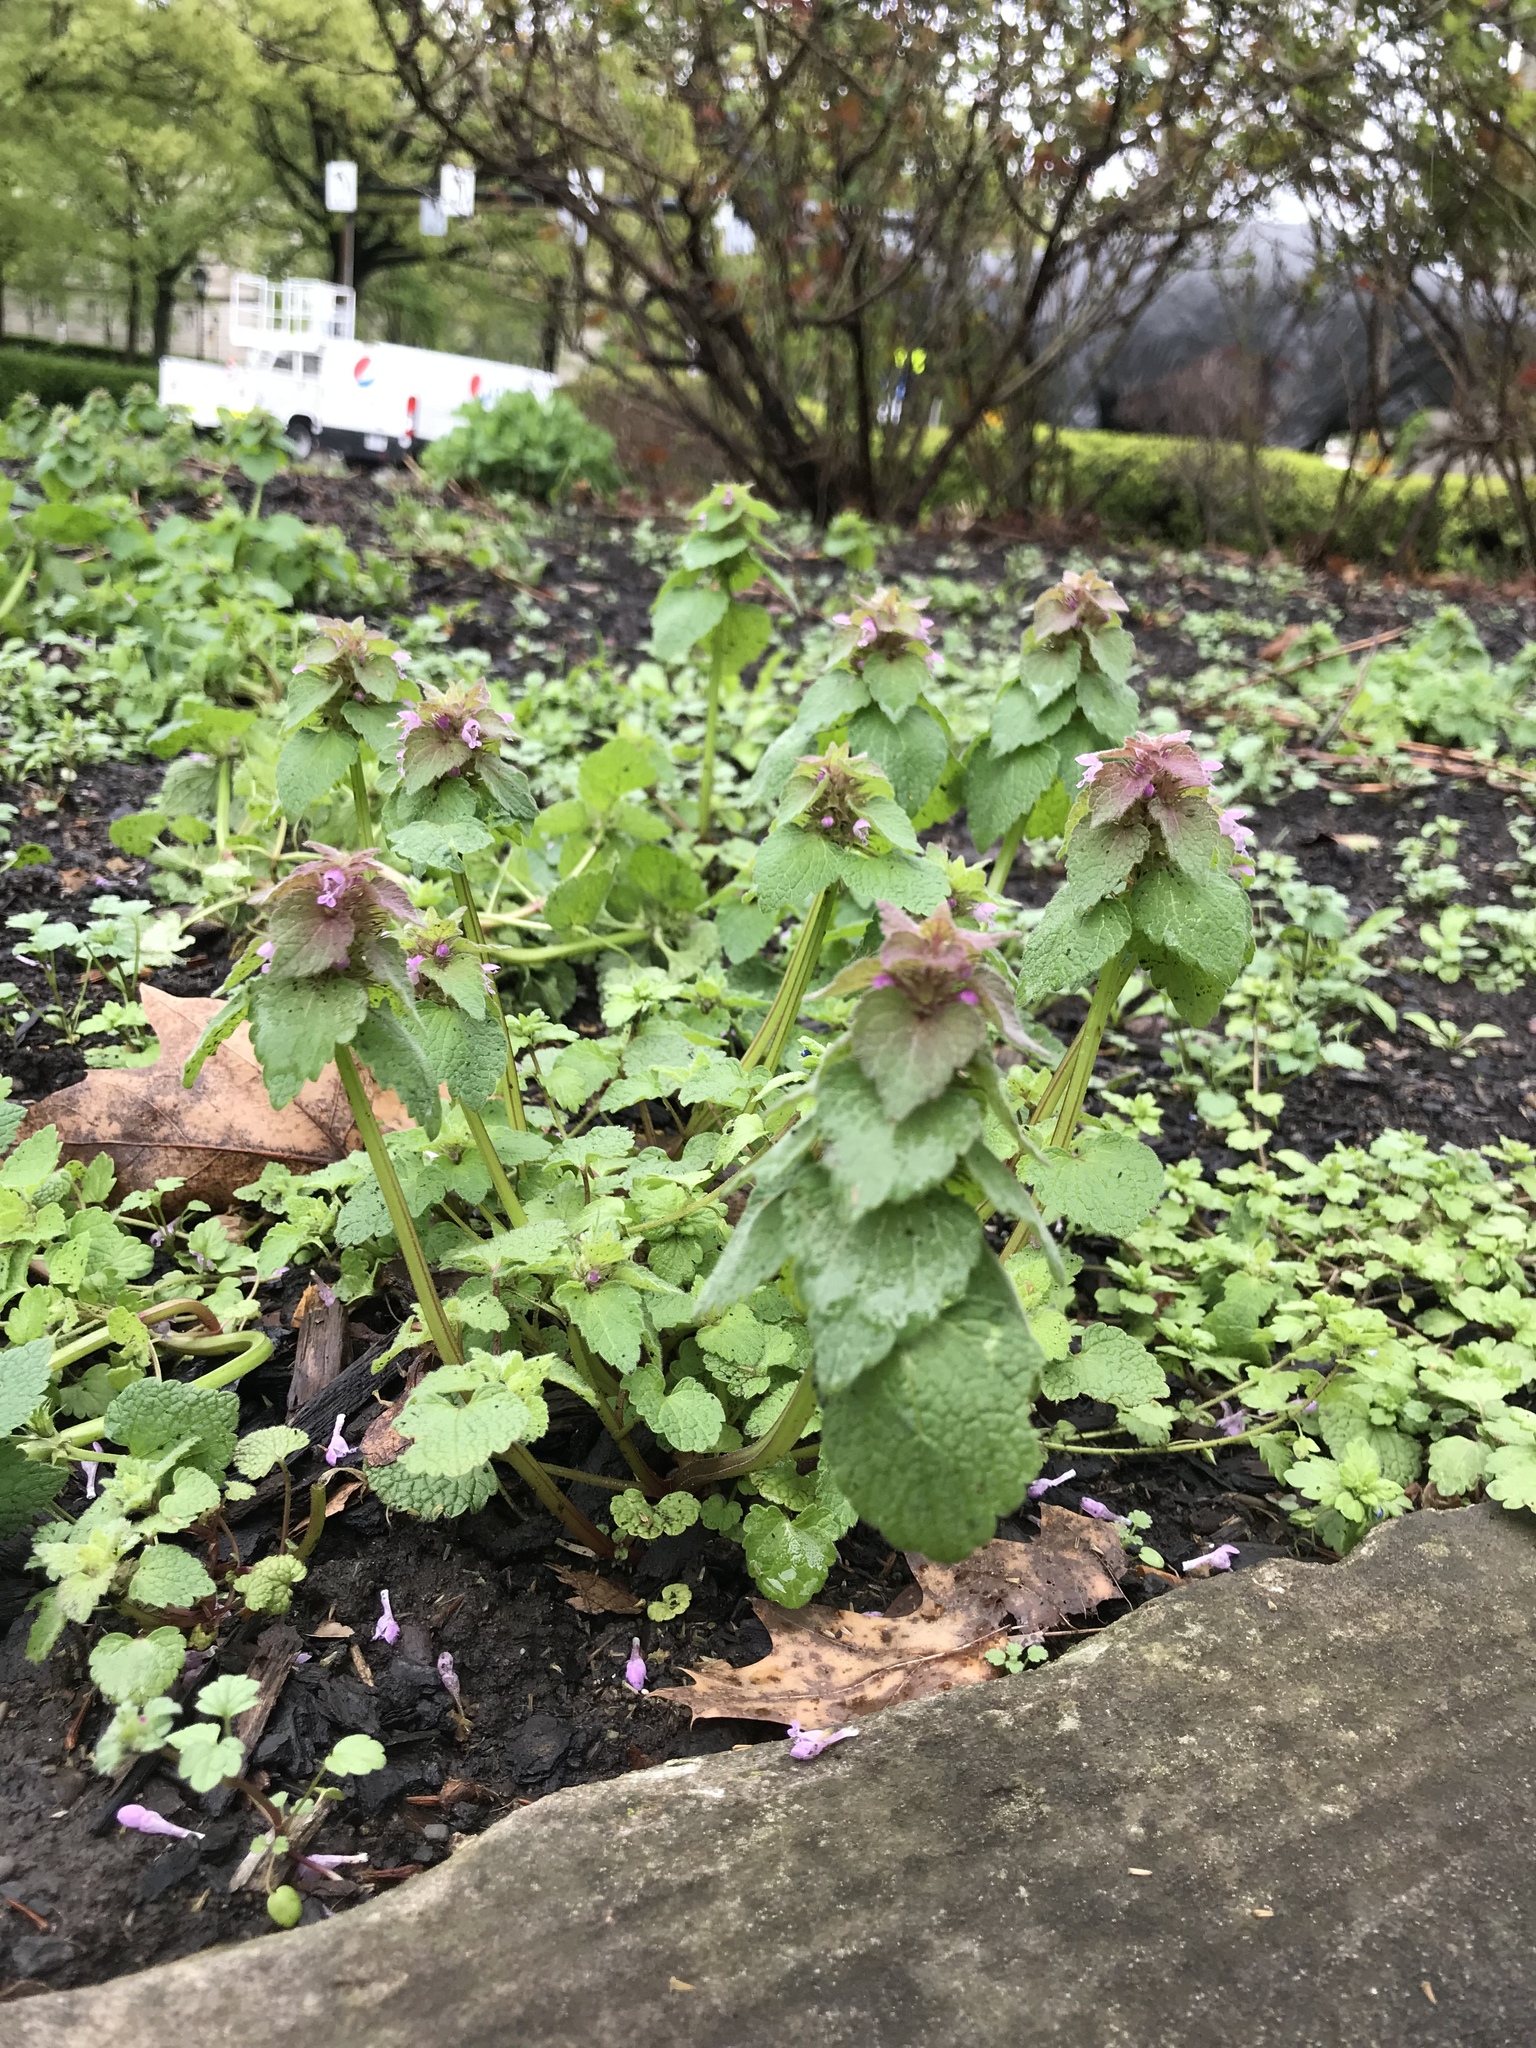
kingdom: Plantae
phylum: Tracheophyta
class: Magnoliopsida
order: Lamiales
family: Lamiaceae
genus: Lamium
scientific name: Lamium purpureum
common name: Red dead-nettle
